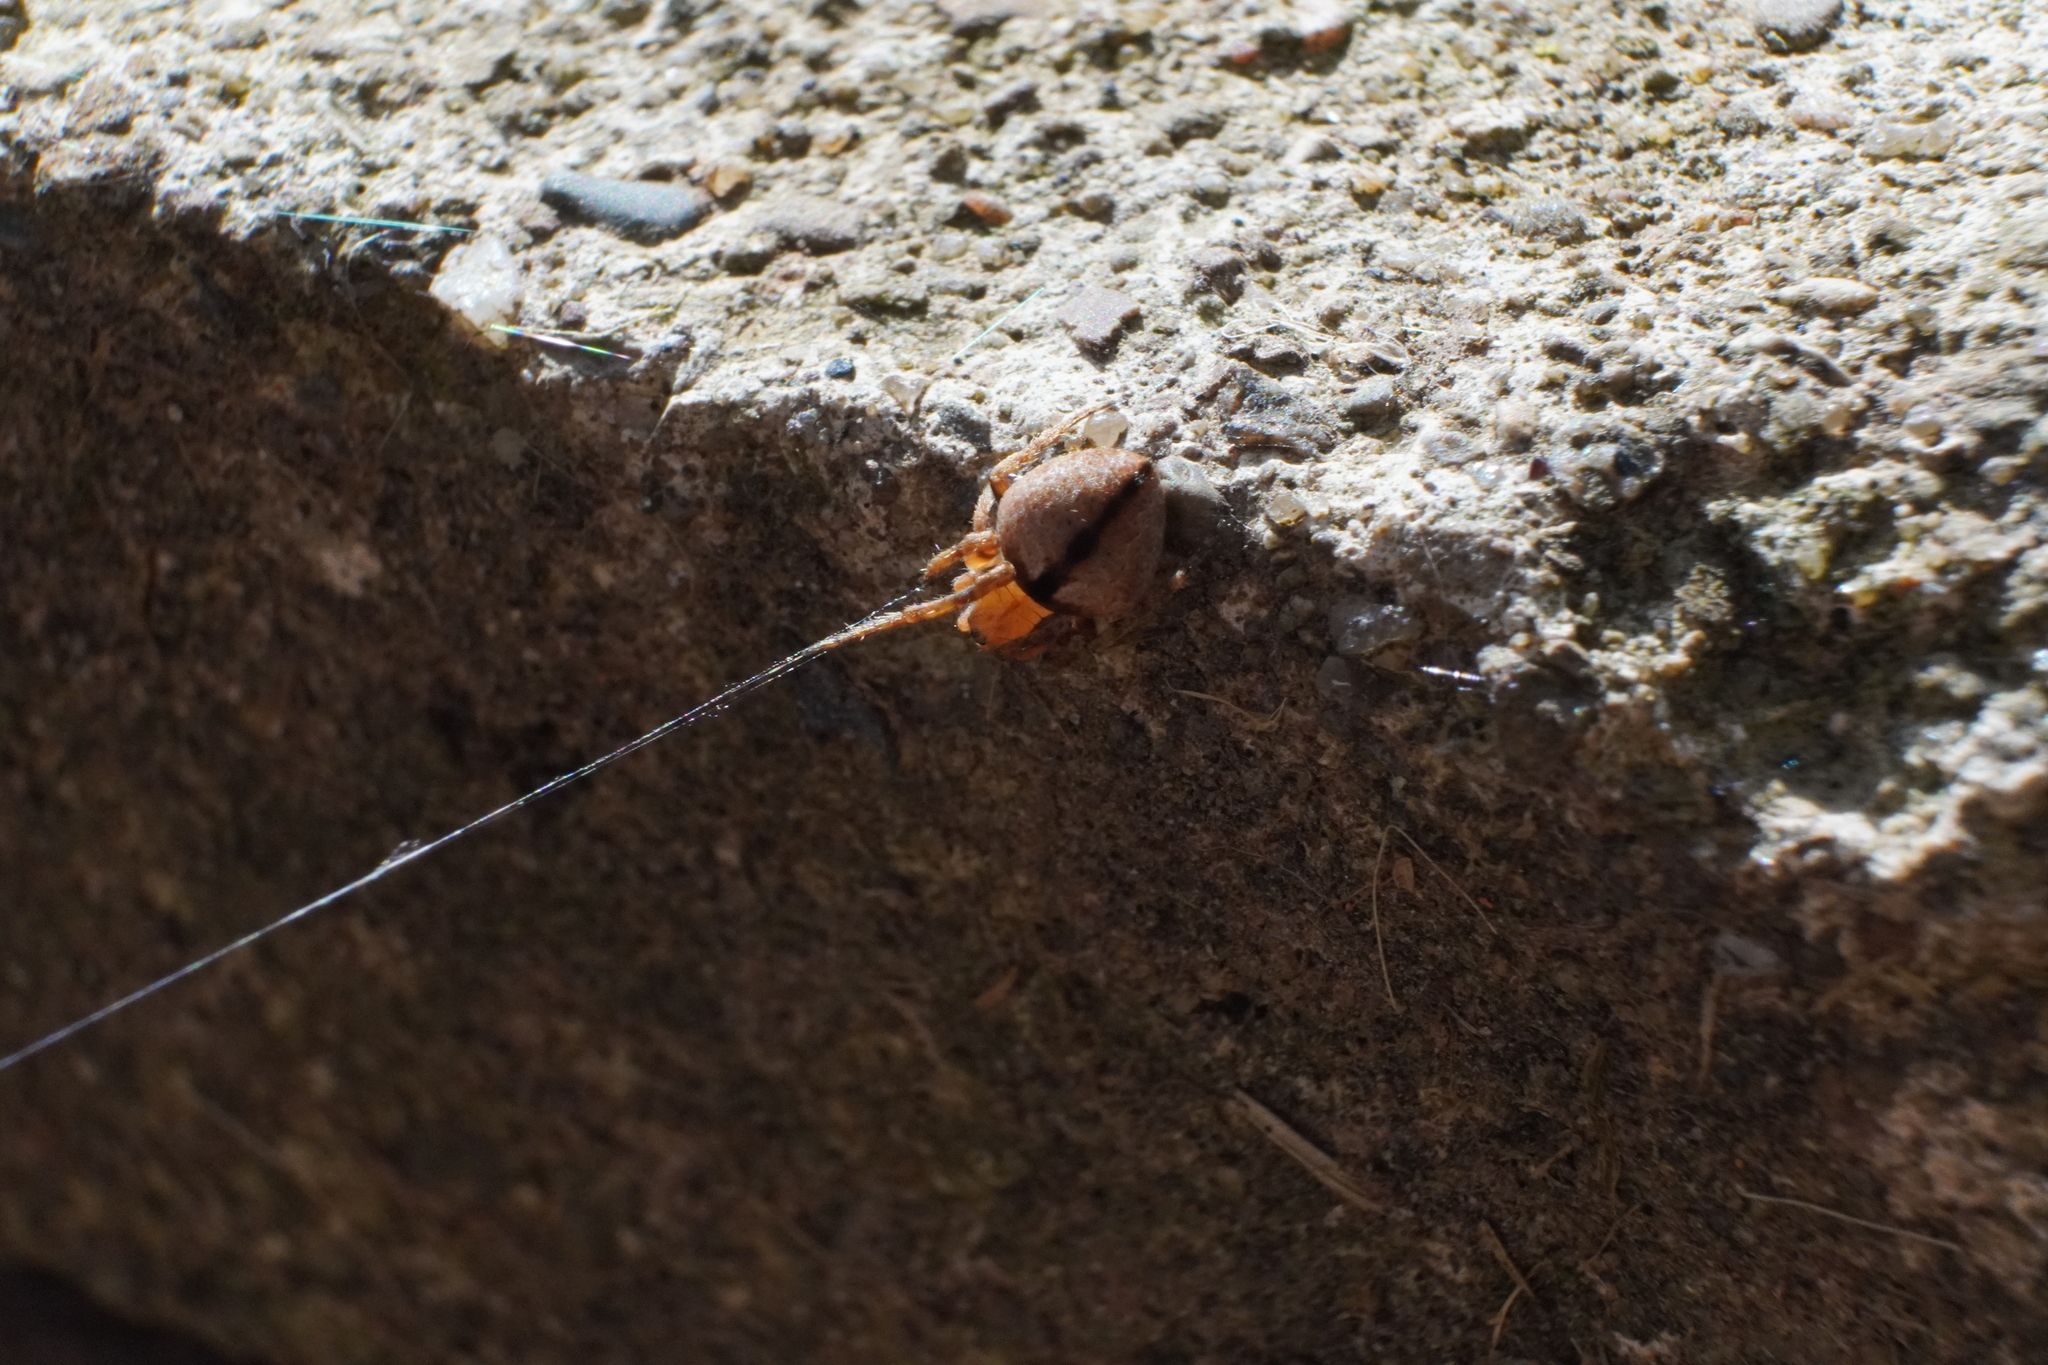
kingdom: Animalia
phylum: Arthropoda
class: Arachnida
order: Araneae
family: Araneidae
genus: Eustala
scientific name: Eustala
